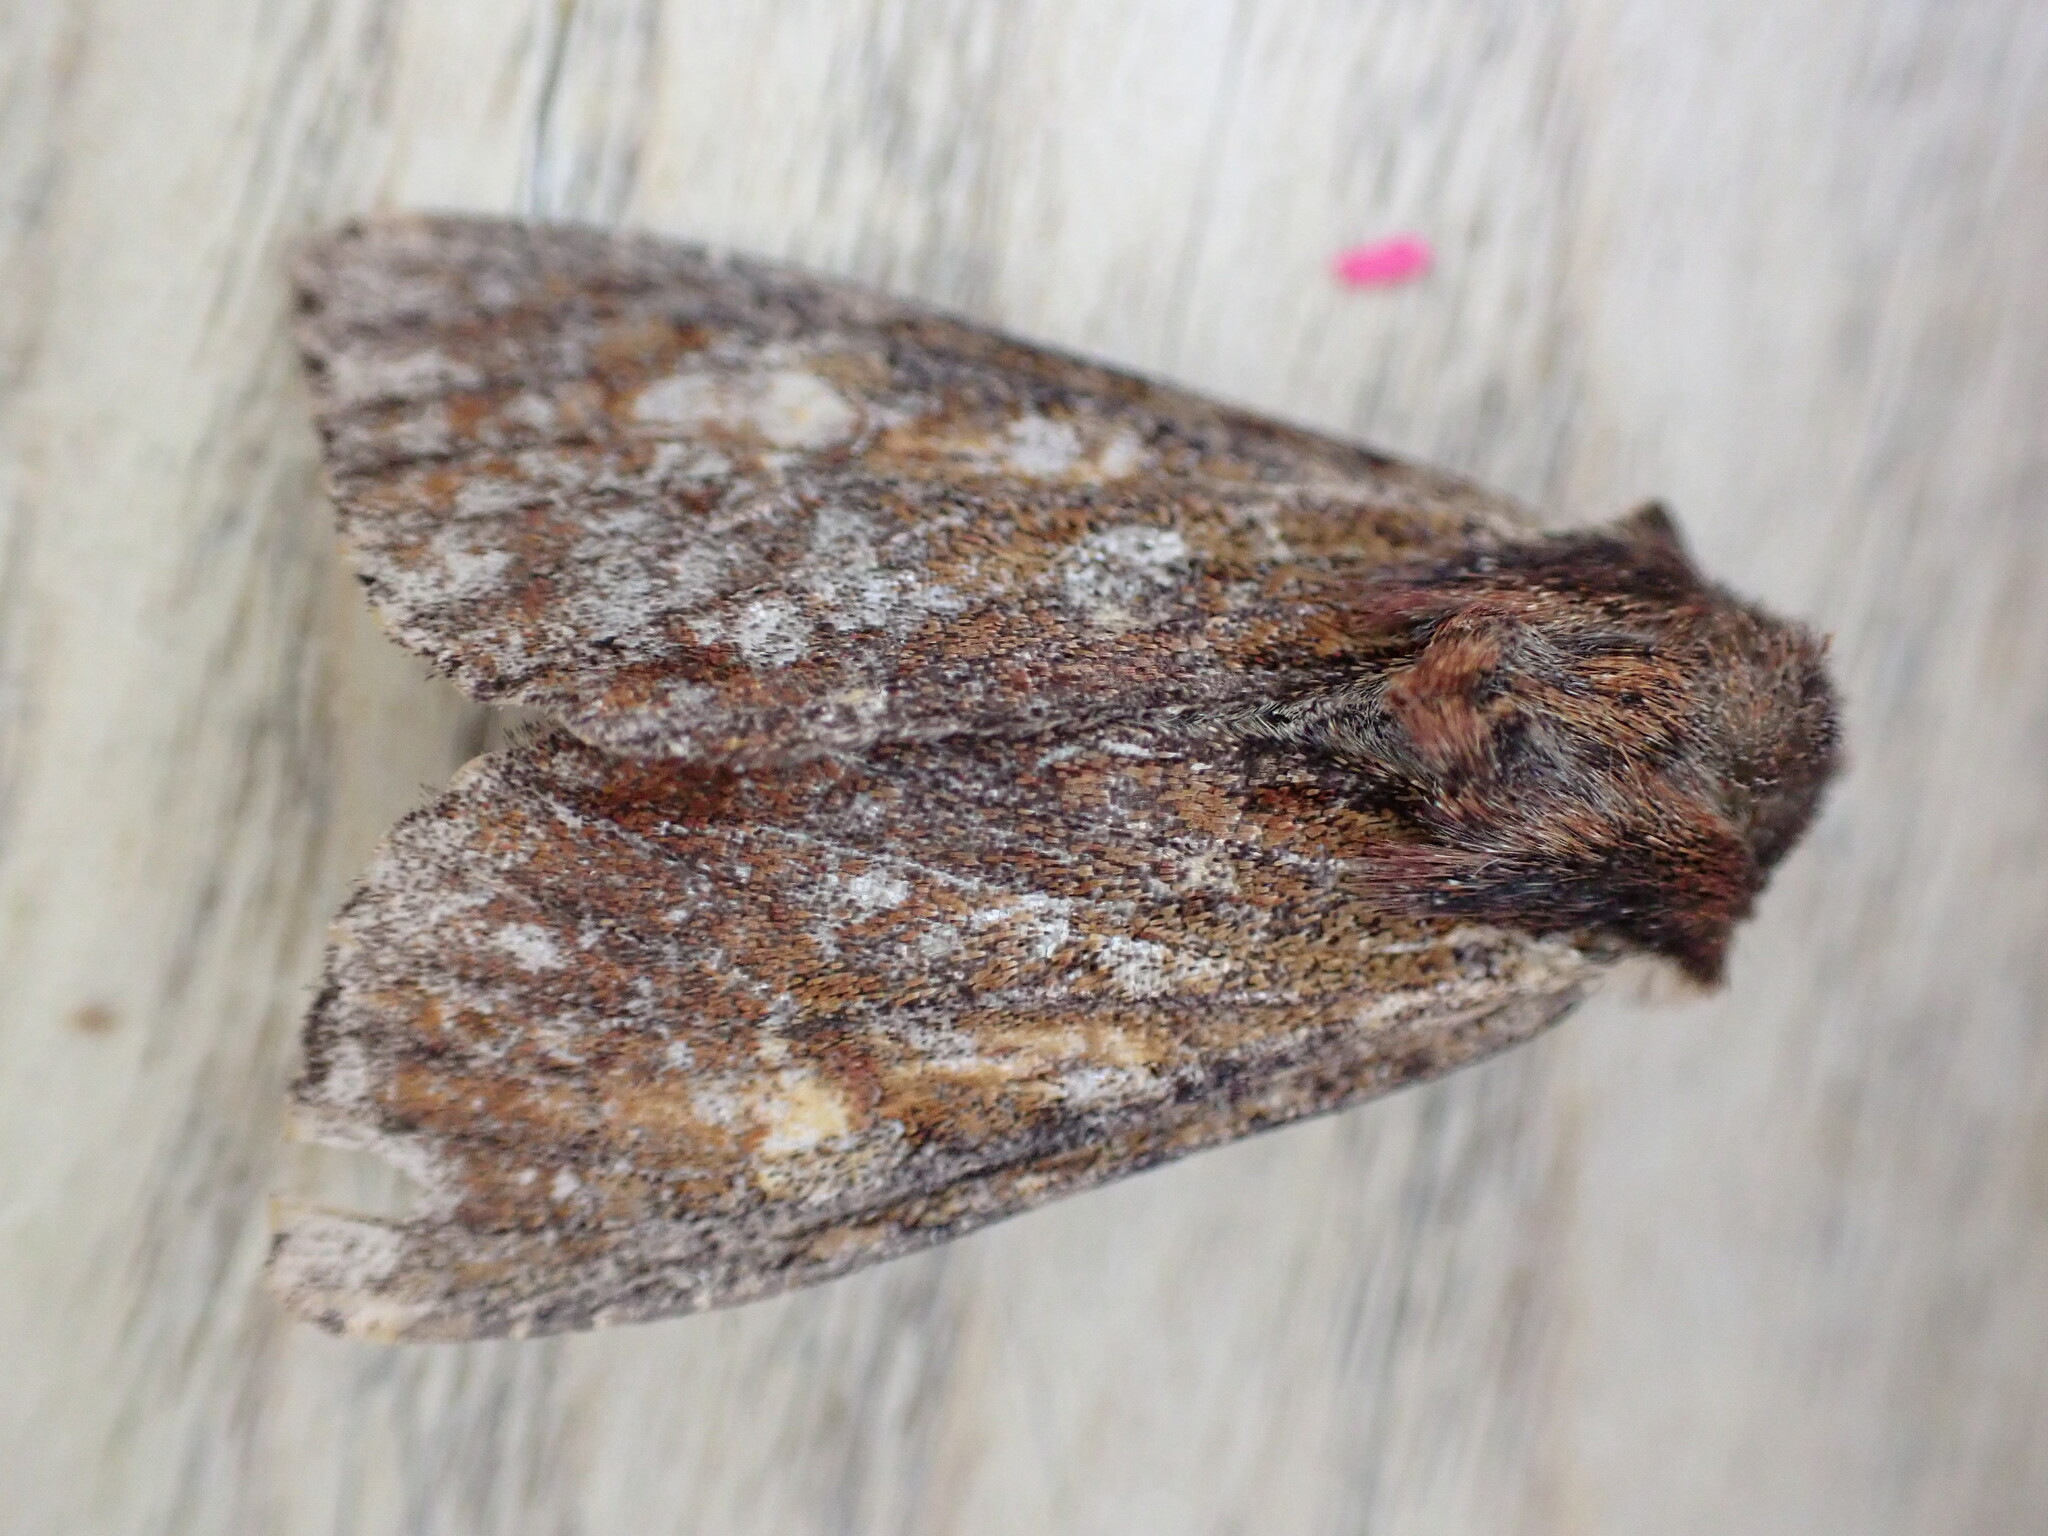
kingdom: Animalia
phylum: Arthropoda
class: Insecta
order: Lepidoptera
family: Noctuidae
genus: Apamea
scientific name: Apamea crenata
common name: Clouded-bordered brindle
